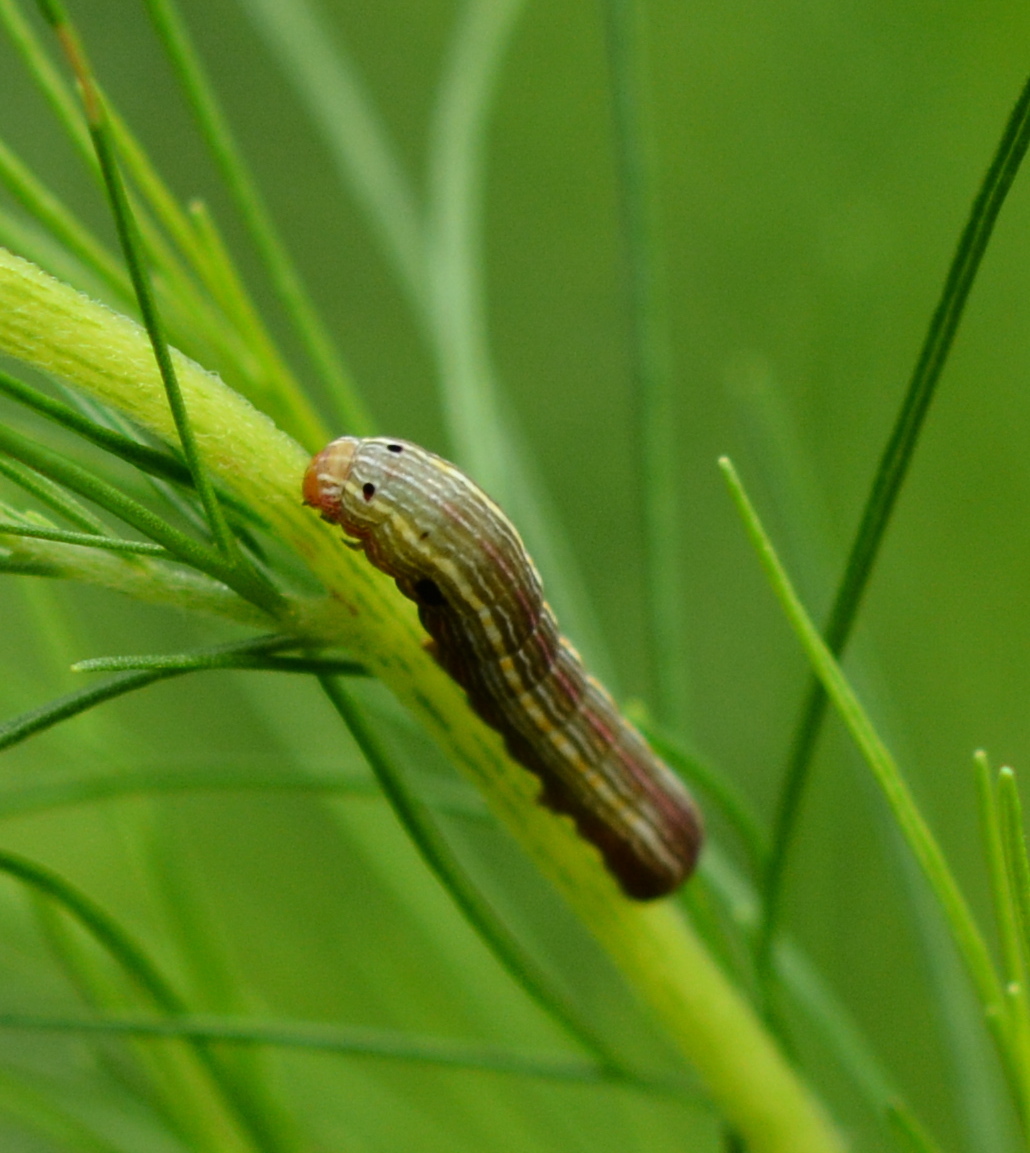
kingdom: Animalia
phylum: Arthropoda
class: Insecta
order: Lepidoptera
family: Noctuidae
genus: Spodoptera
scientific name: Spodoptera ornithogalli
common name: Yellow-striped armyworm
